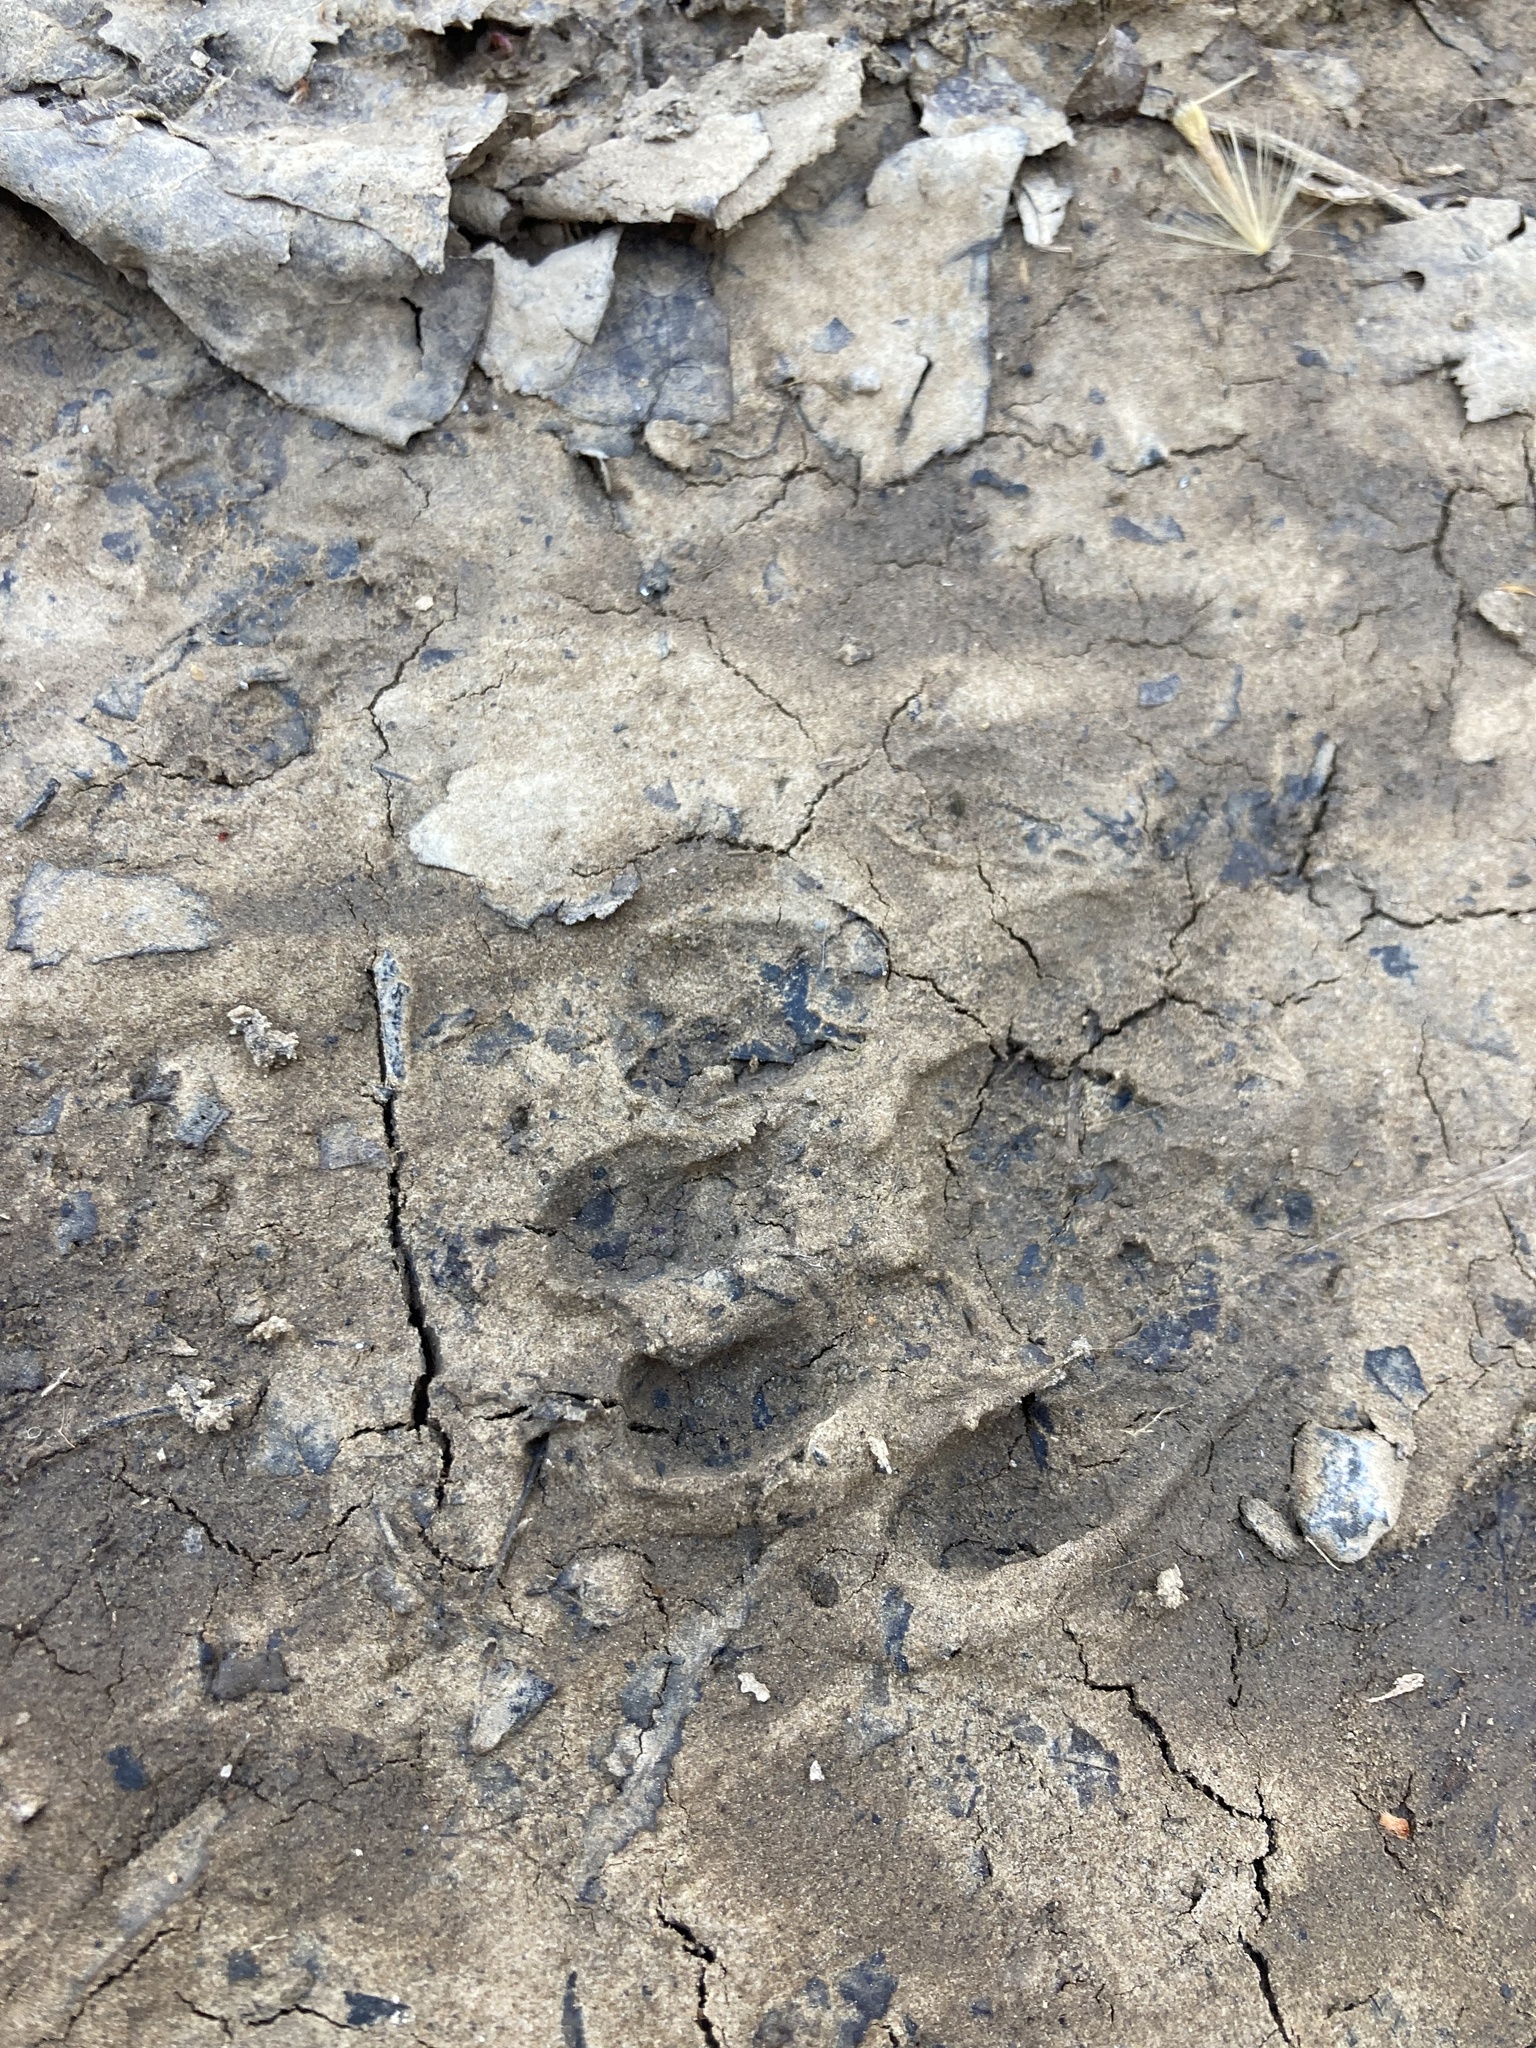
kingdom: Animalia
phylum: Chordata
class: Mammalia
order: Carnivora
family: Procyonidae
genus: Procyon
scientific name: Procyon lotor
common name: Raccoon
